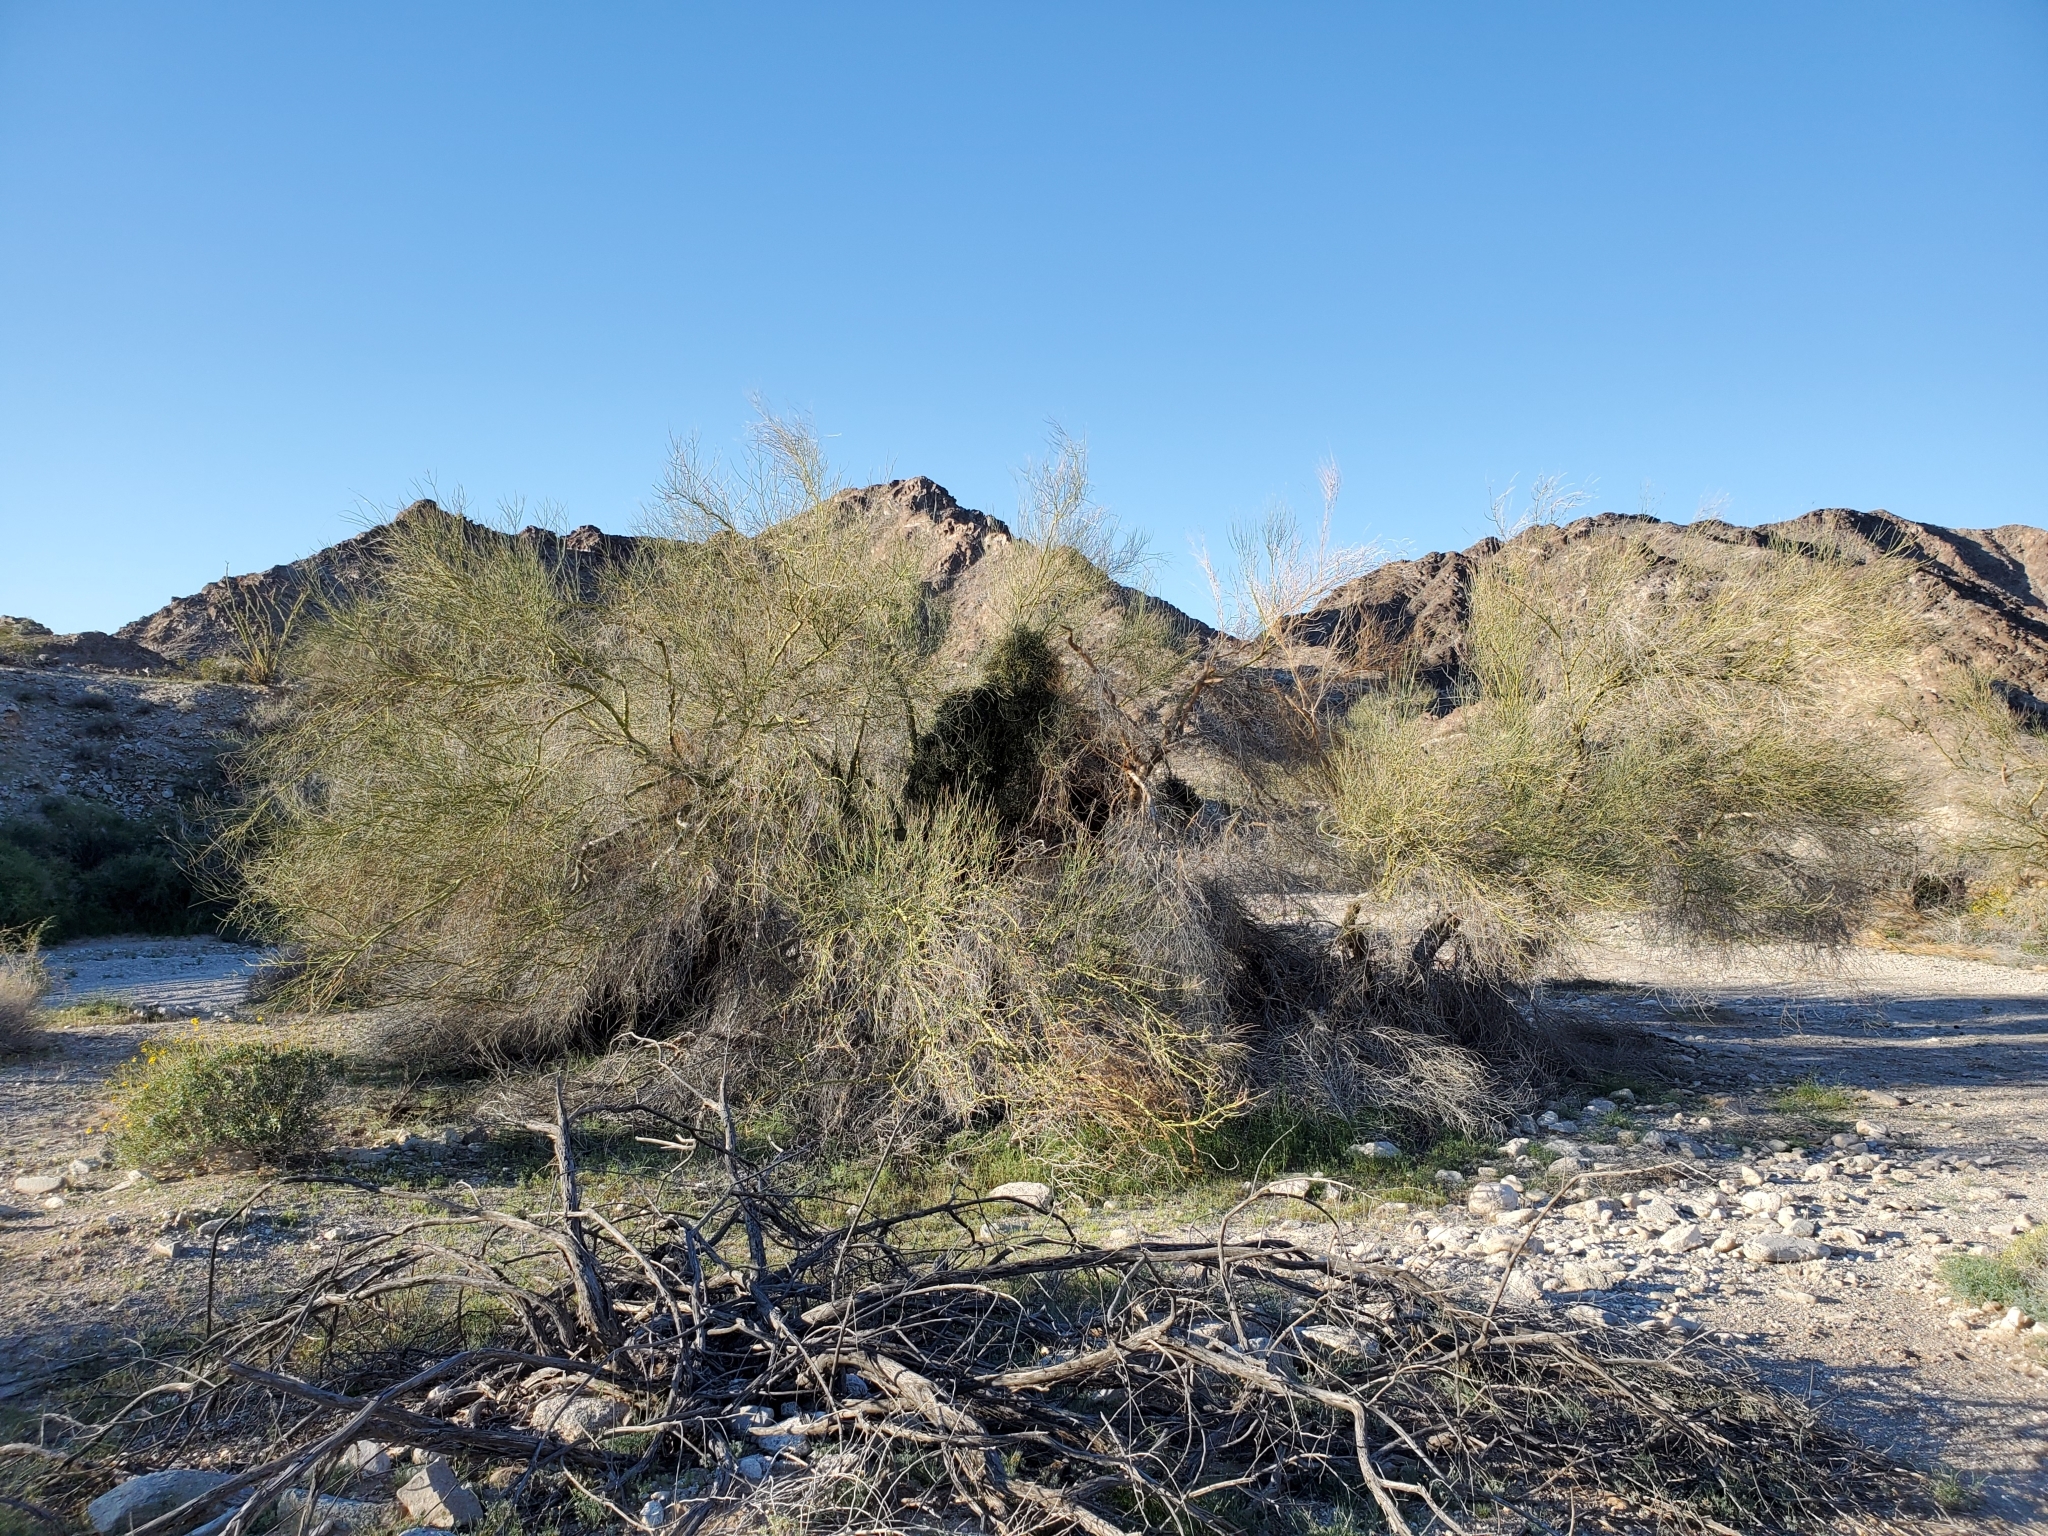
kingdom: Plantae
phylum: Tracheophyta
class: Magnoliopsida
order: Fabales
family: Fabaceae
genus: Parkinsonia
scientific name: Parkinsonia florida
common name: Blue paloverde
